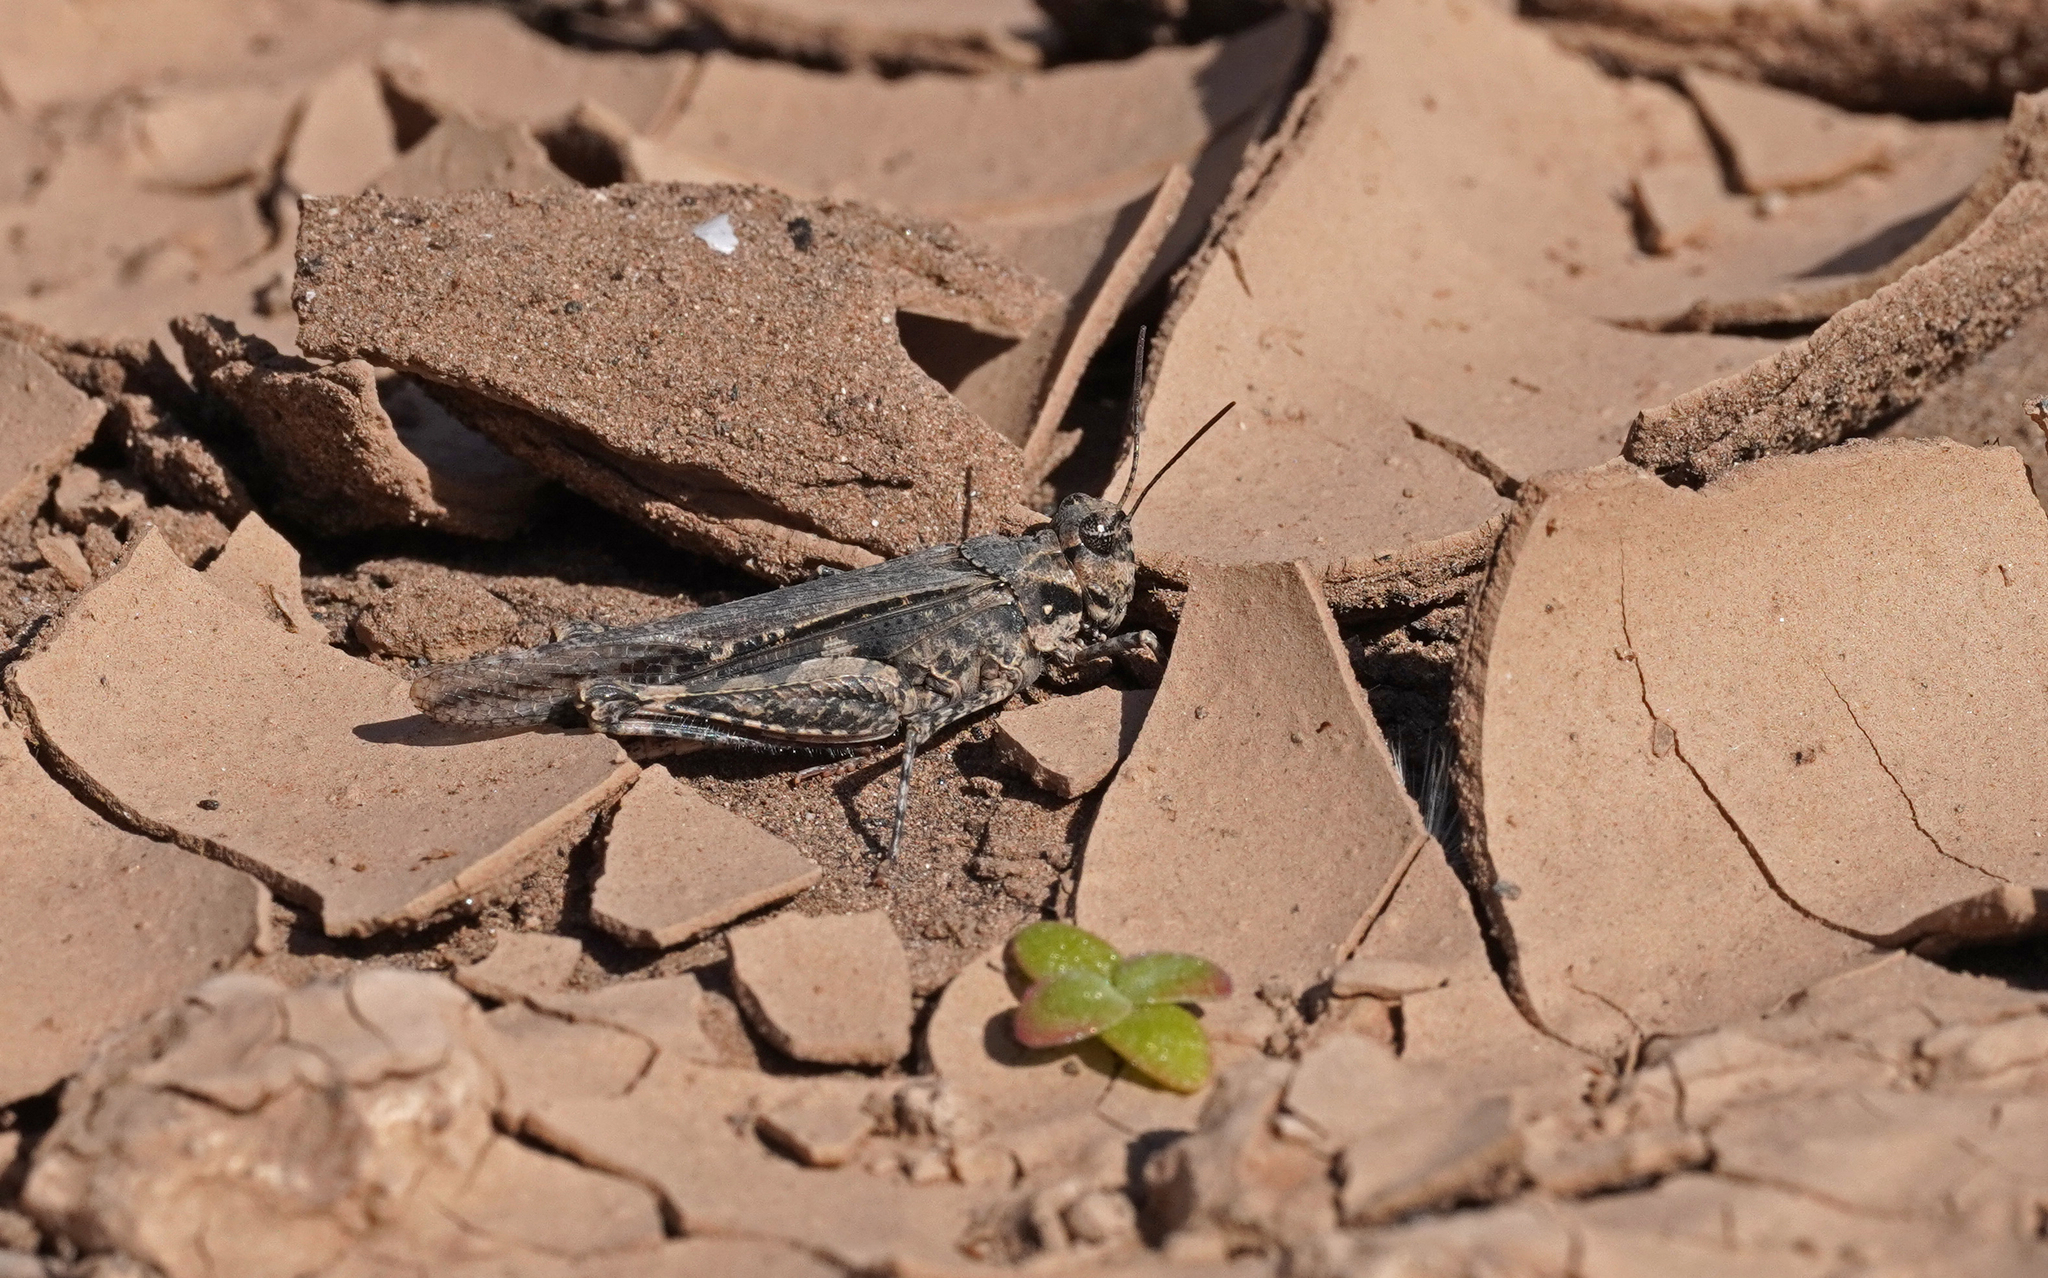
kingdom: Animalia
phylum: Arthropoda
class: Insecta
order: Orthoptera
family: Acrididae
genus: Acrotylus
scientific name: Acrotylus insubricus
